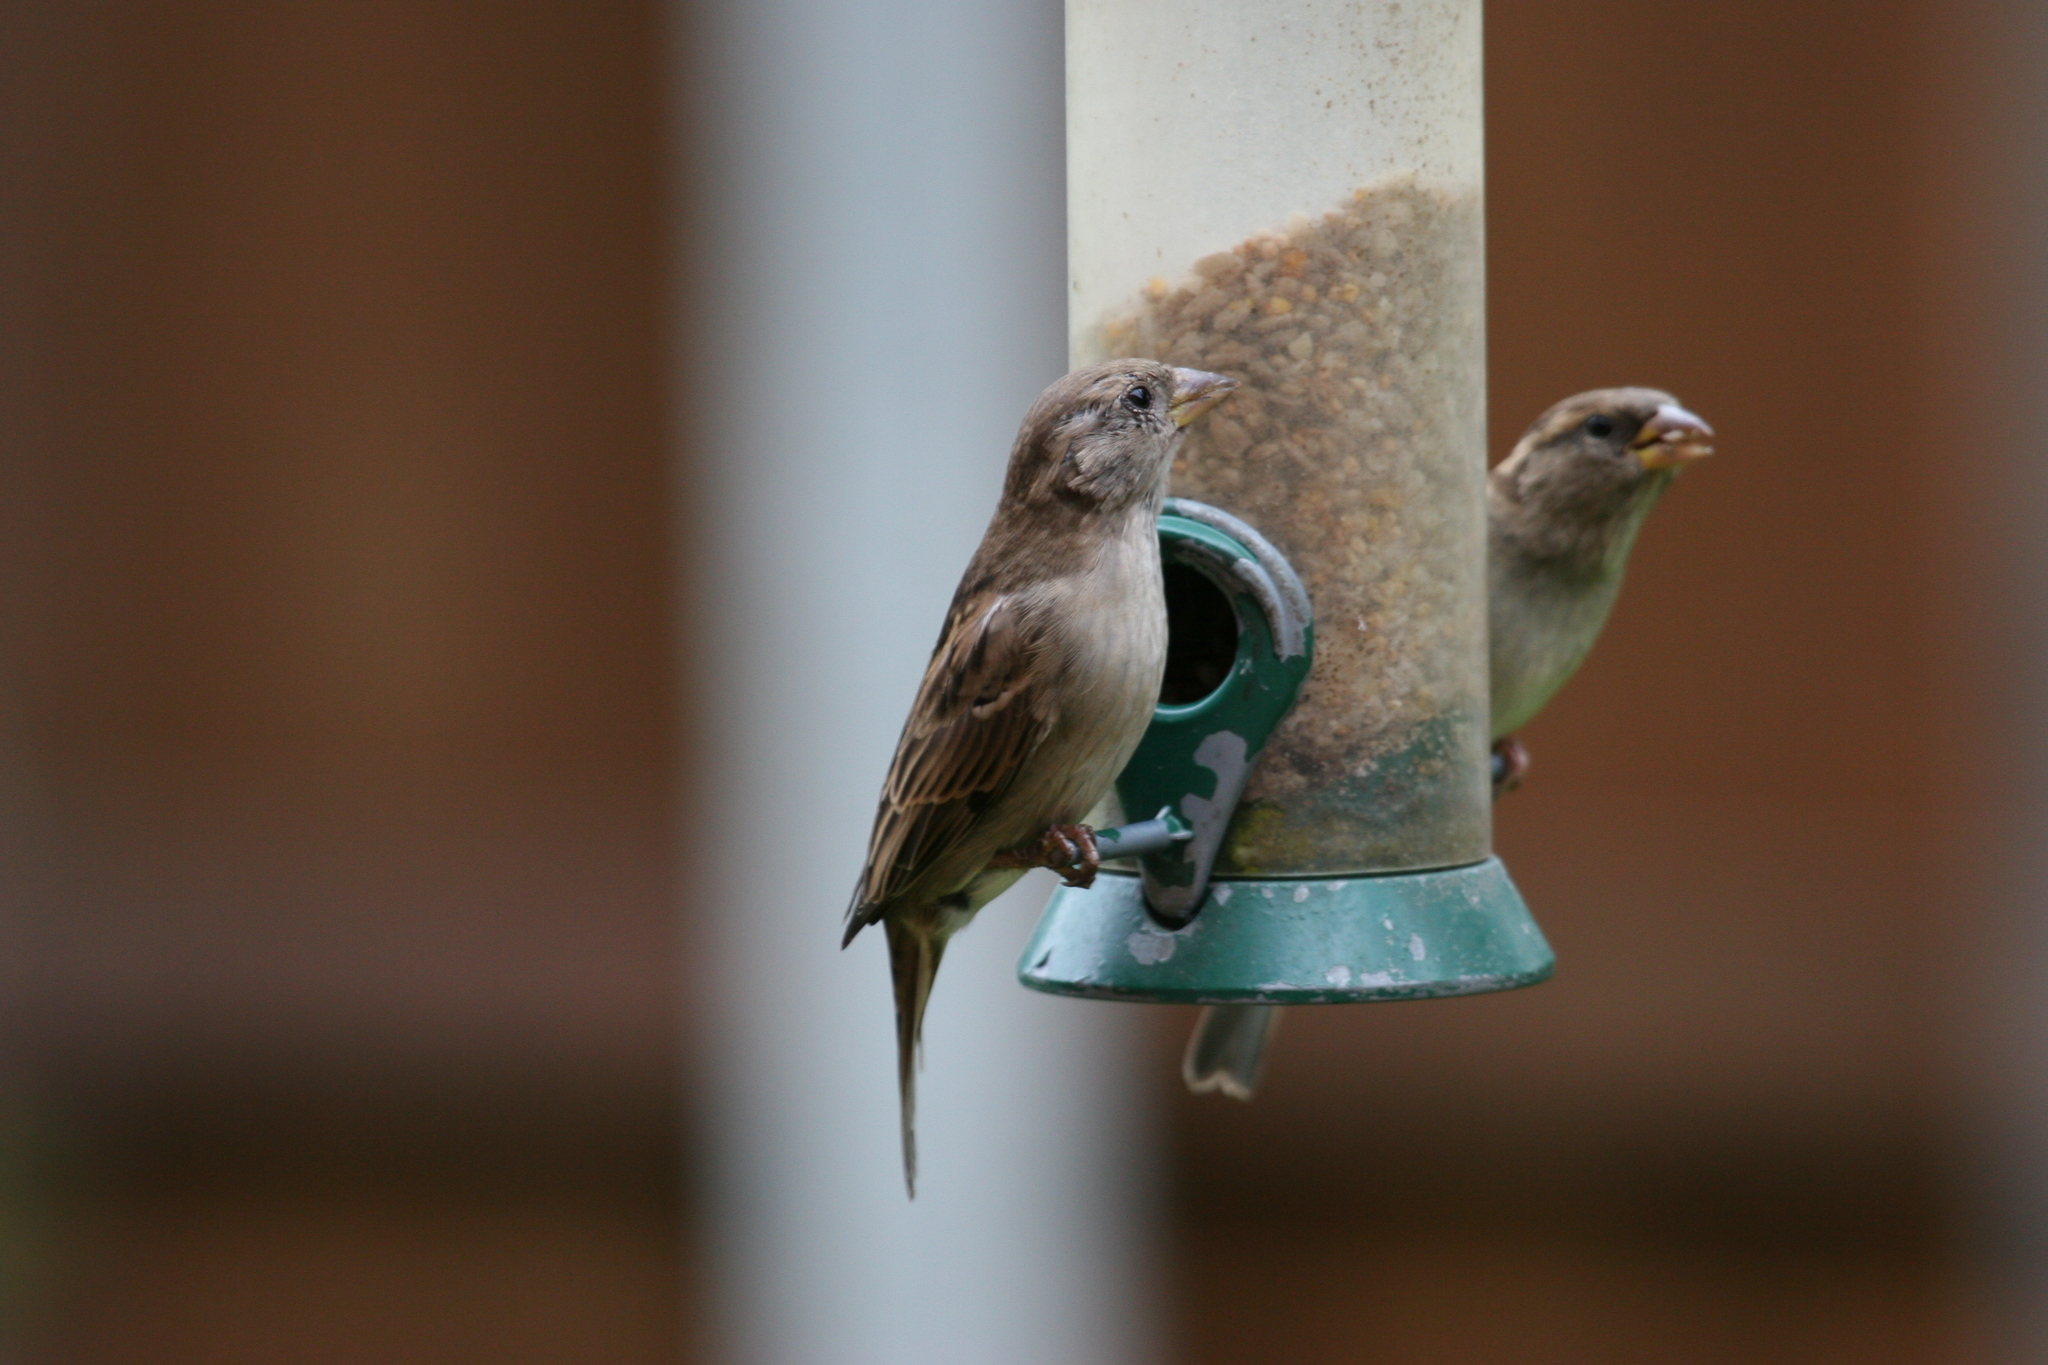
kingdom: Animalia
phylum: Chordata
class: Aves
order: Passeriformes
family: Passeridae
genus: Passer
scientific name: Passer domesticus
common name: House sparrow
